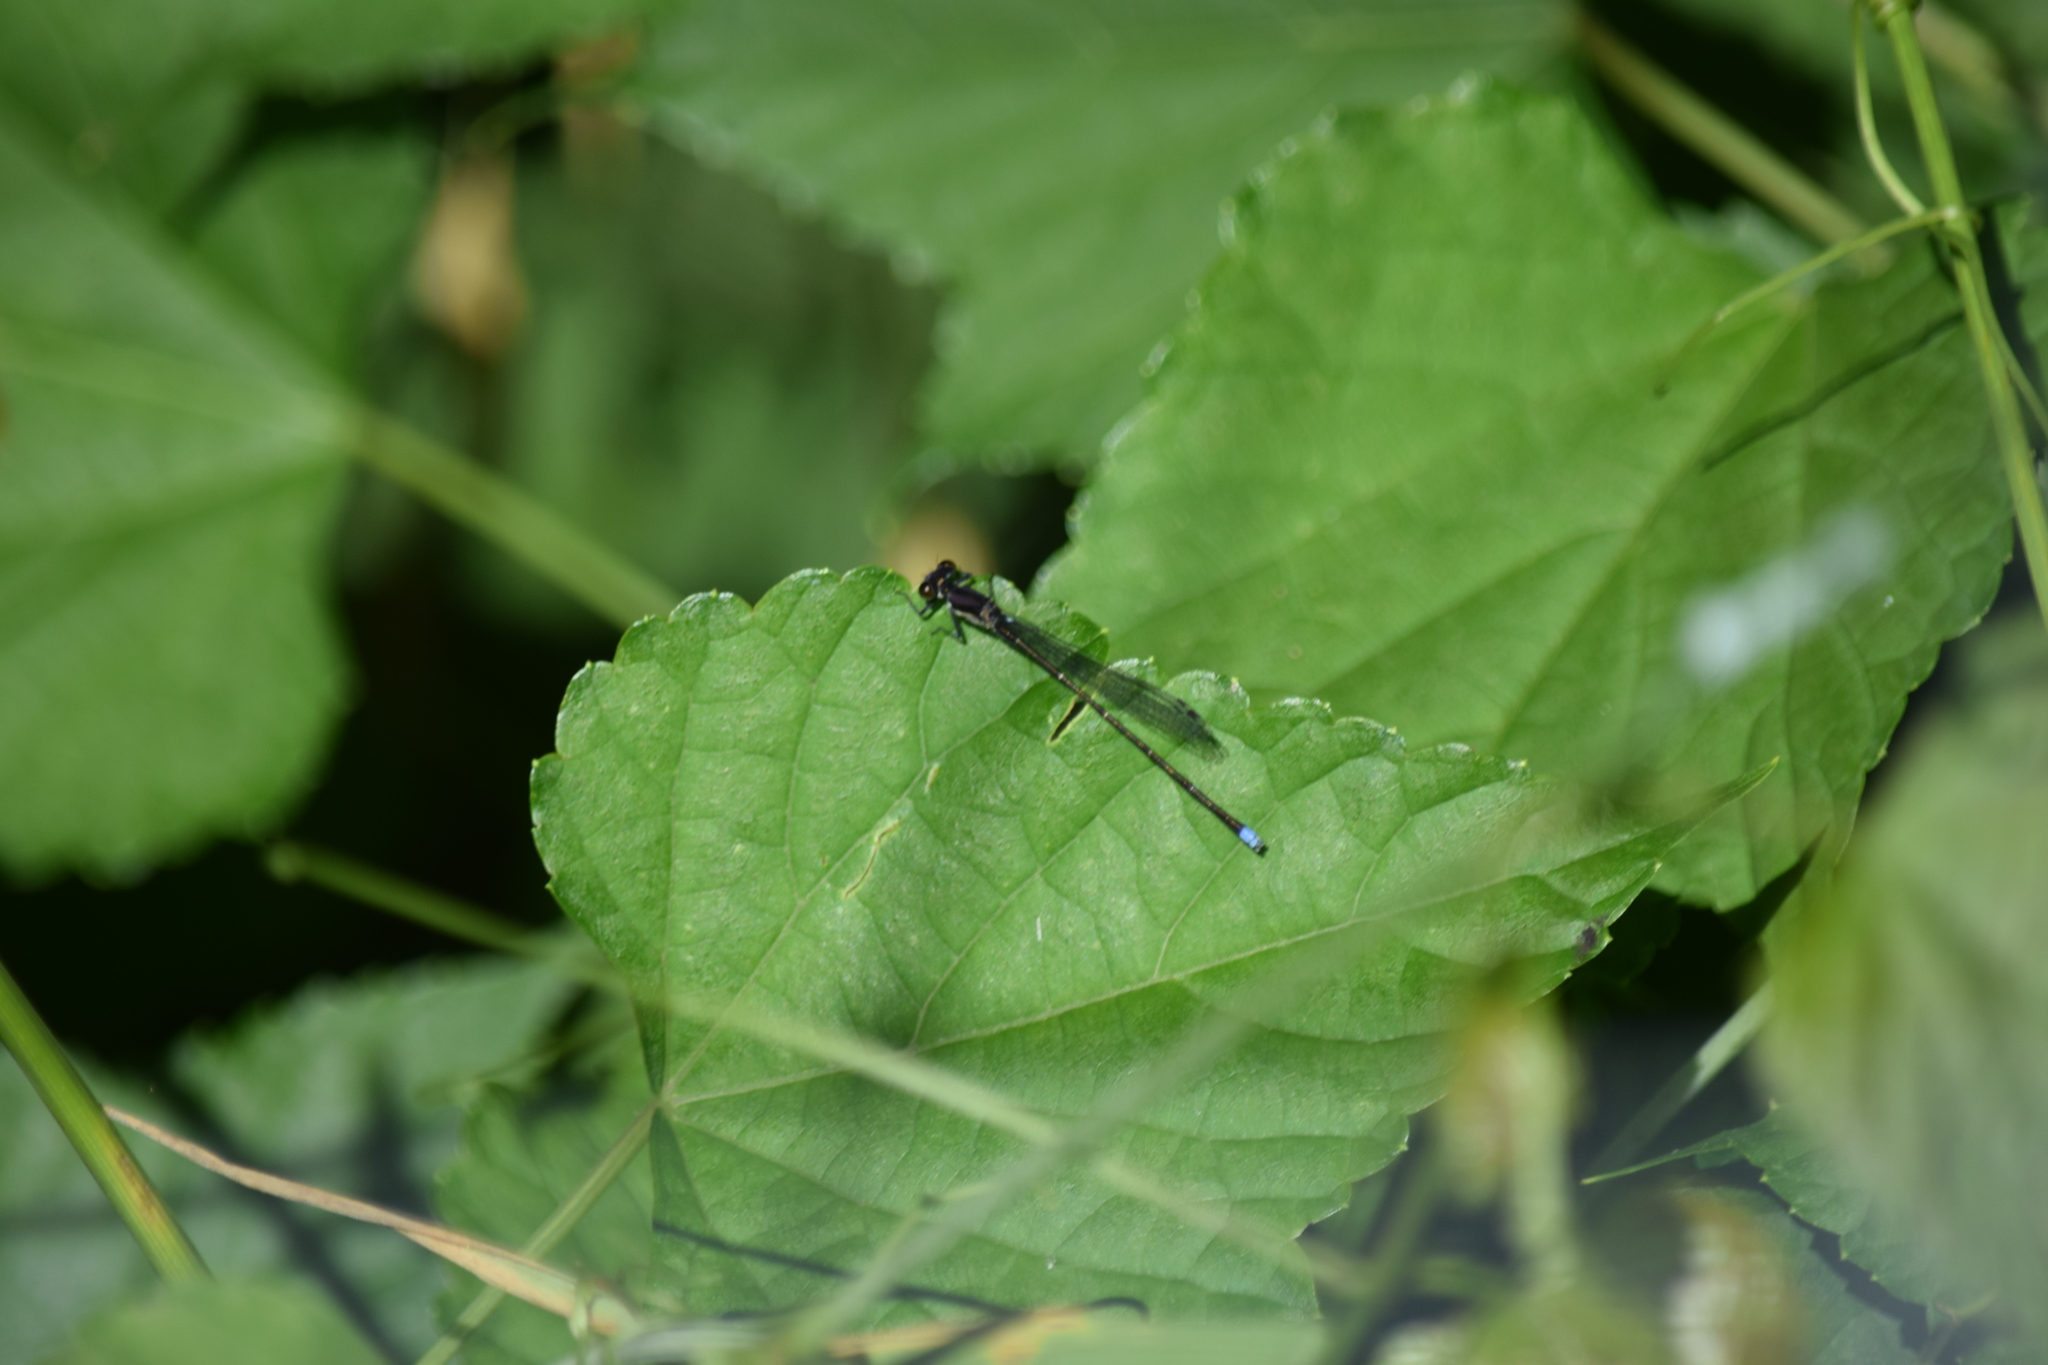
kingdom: Animalia
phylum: Arthropoda
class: Insecta
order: Odonata
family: Coenagrionidae
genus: Argia
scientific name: Argia tibialis
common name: Blue-tipped dancer
